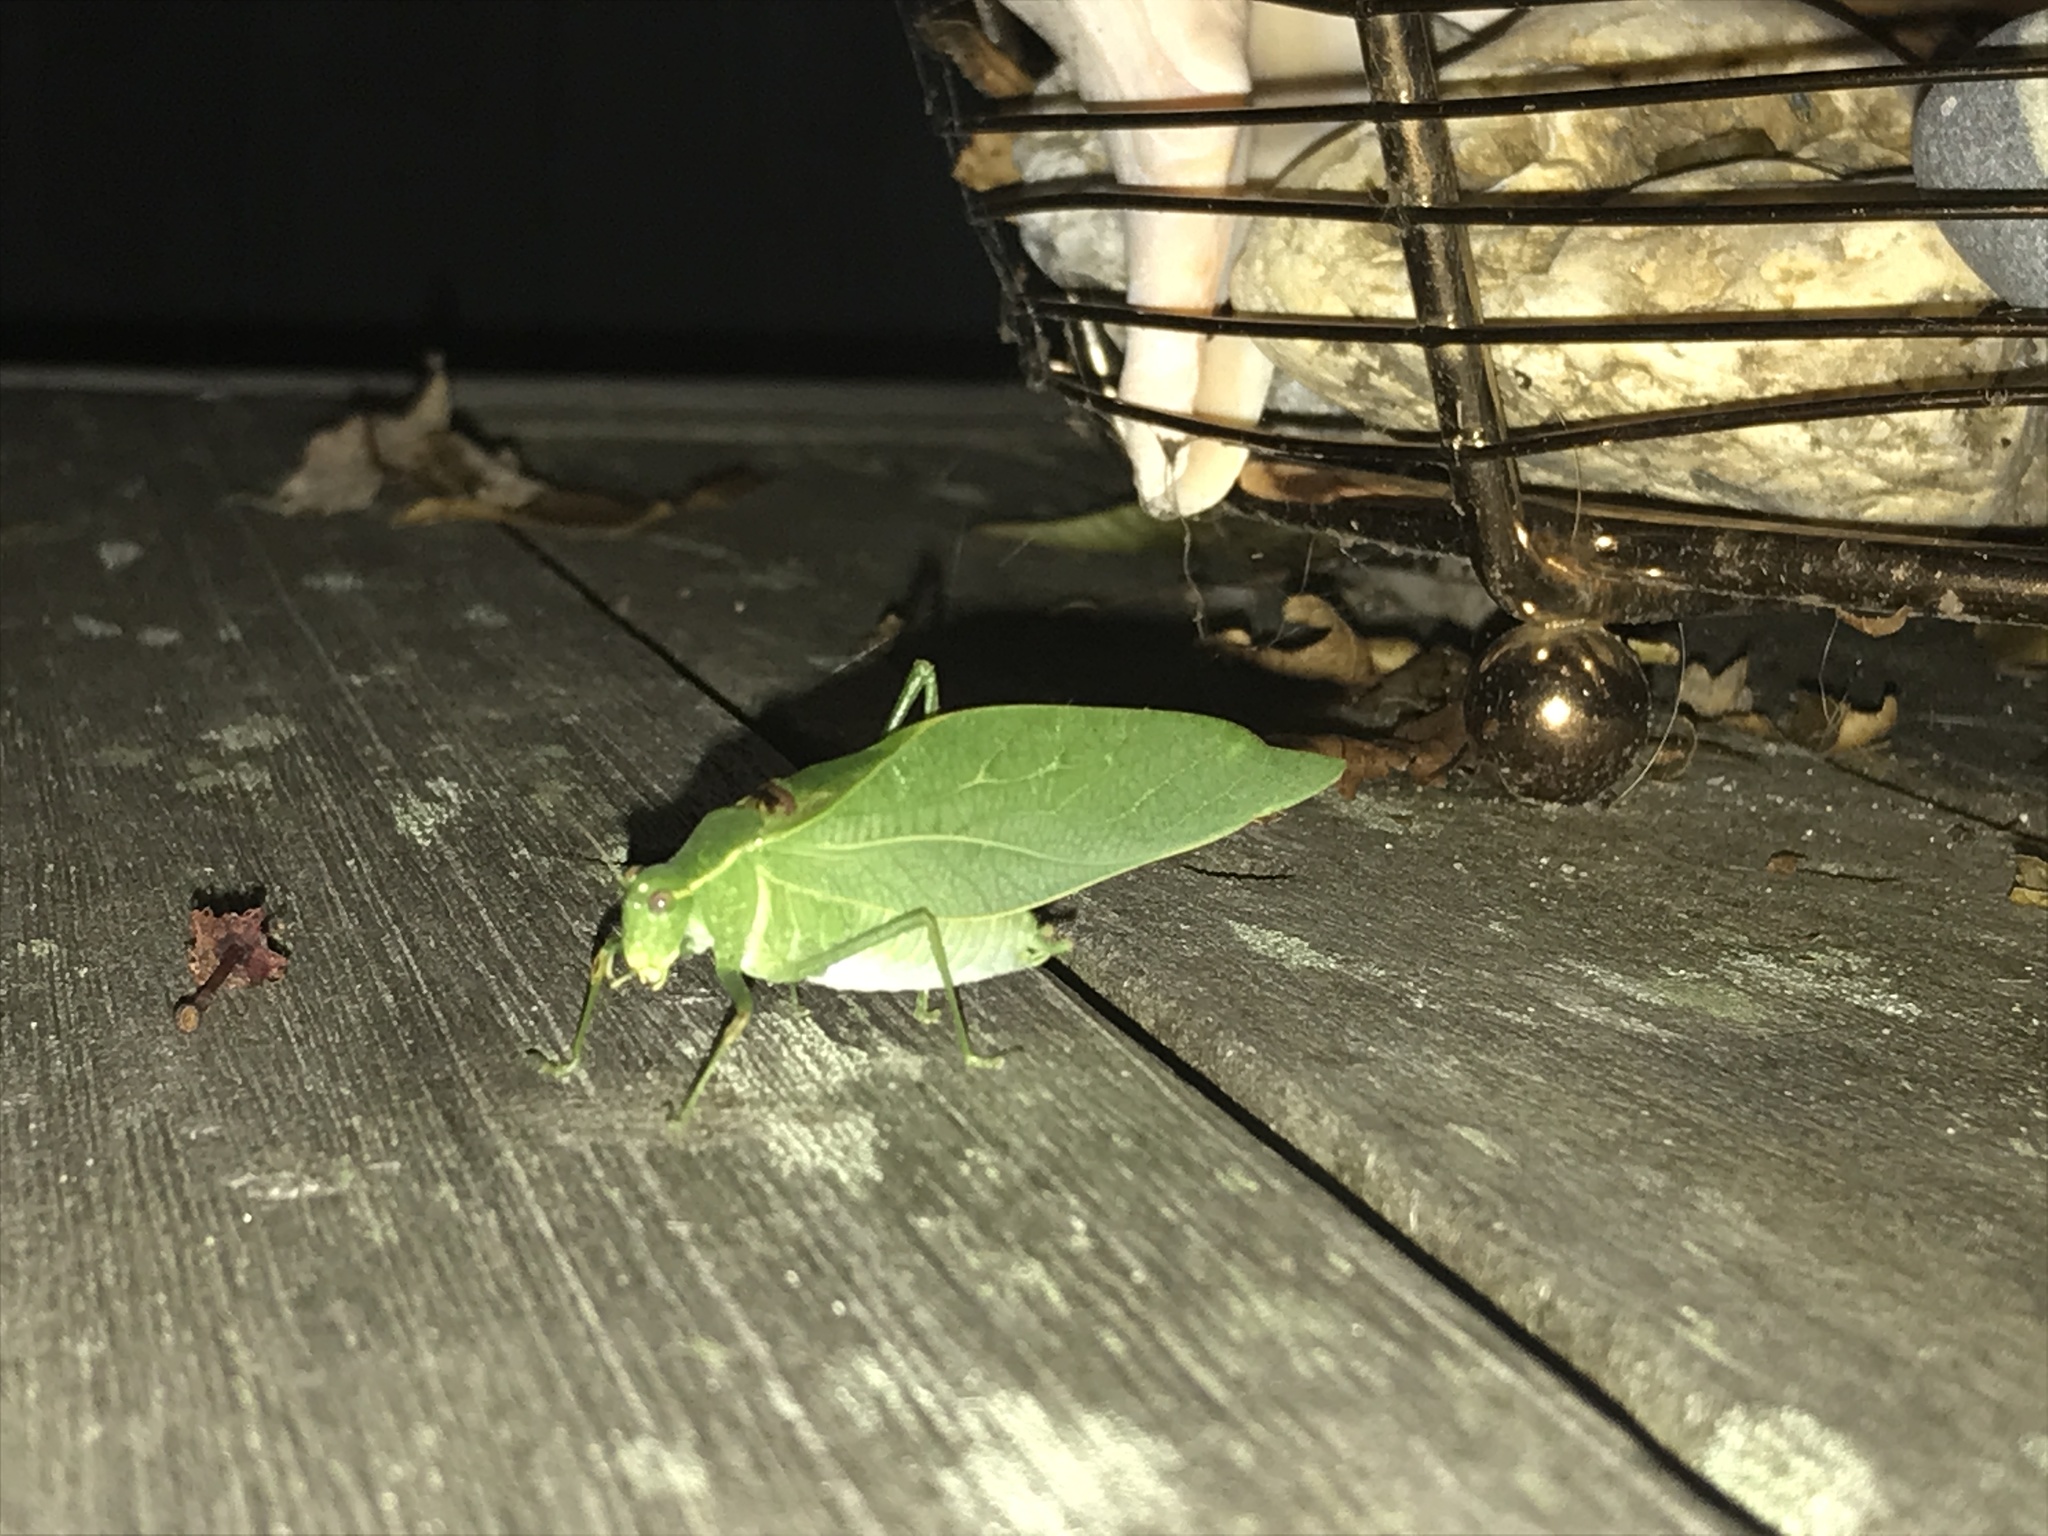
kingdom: Animalia
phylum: Arthropoda
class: Insecta
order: Orthoptera
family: Tettigoniidae
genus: Microcentrum
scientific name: Microcentrum retinerve
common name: Angular-winged katydid
